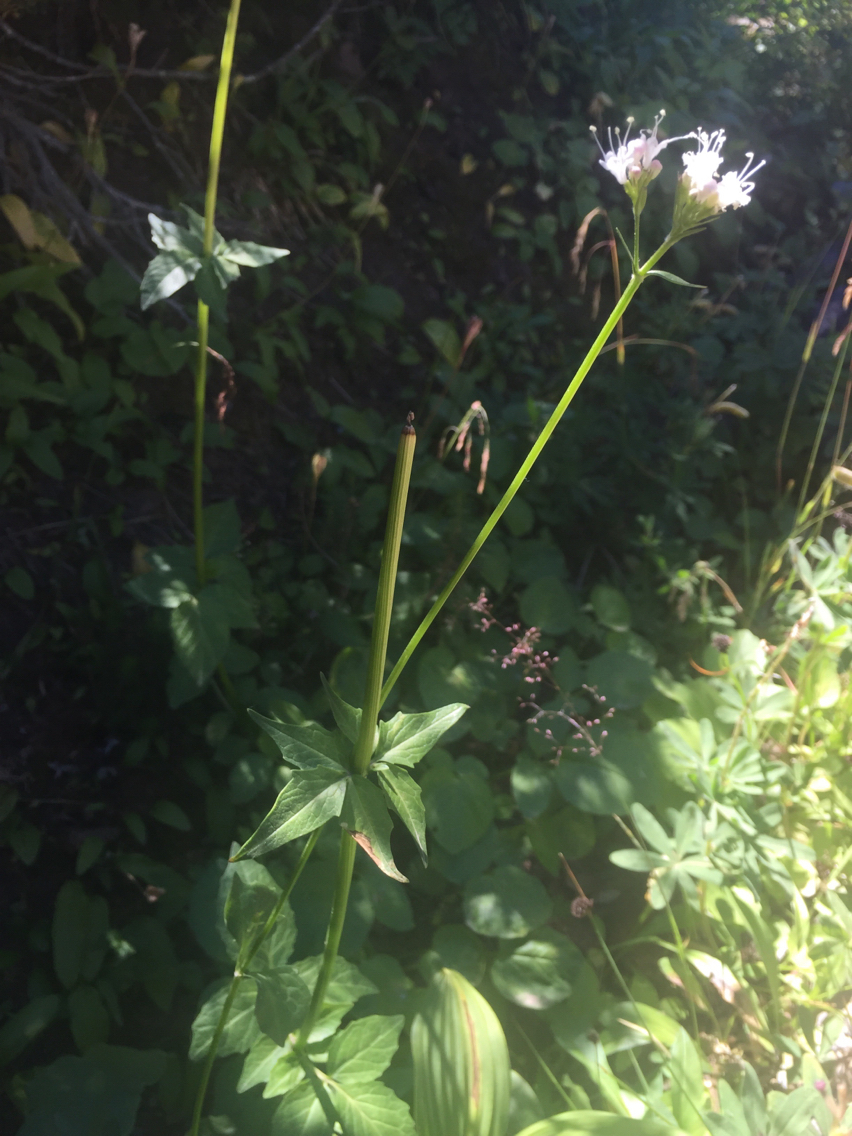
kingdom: Plantae
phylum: Tracheophyta
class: Magnoliopsida
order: Dipsacales
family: Caprifoliaceae
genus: Valeriana
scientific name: Valeriana sitchensis
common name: Pacific valerian
